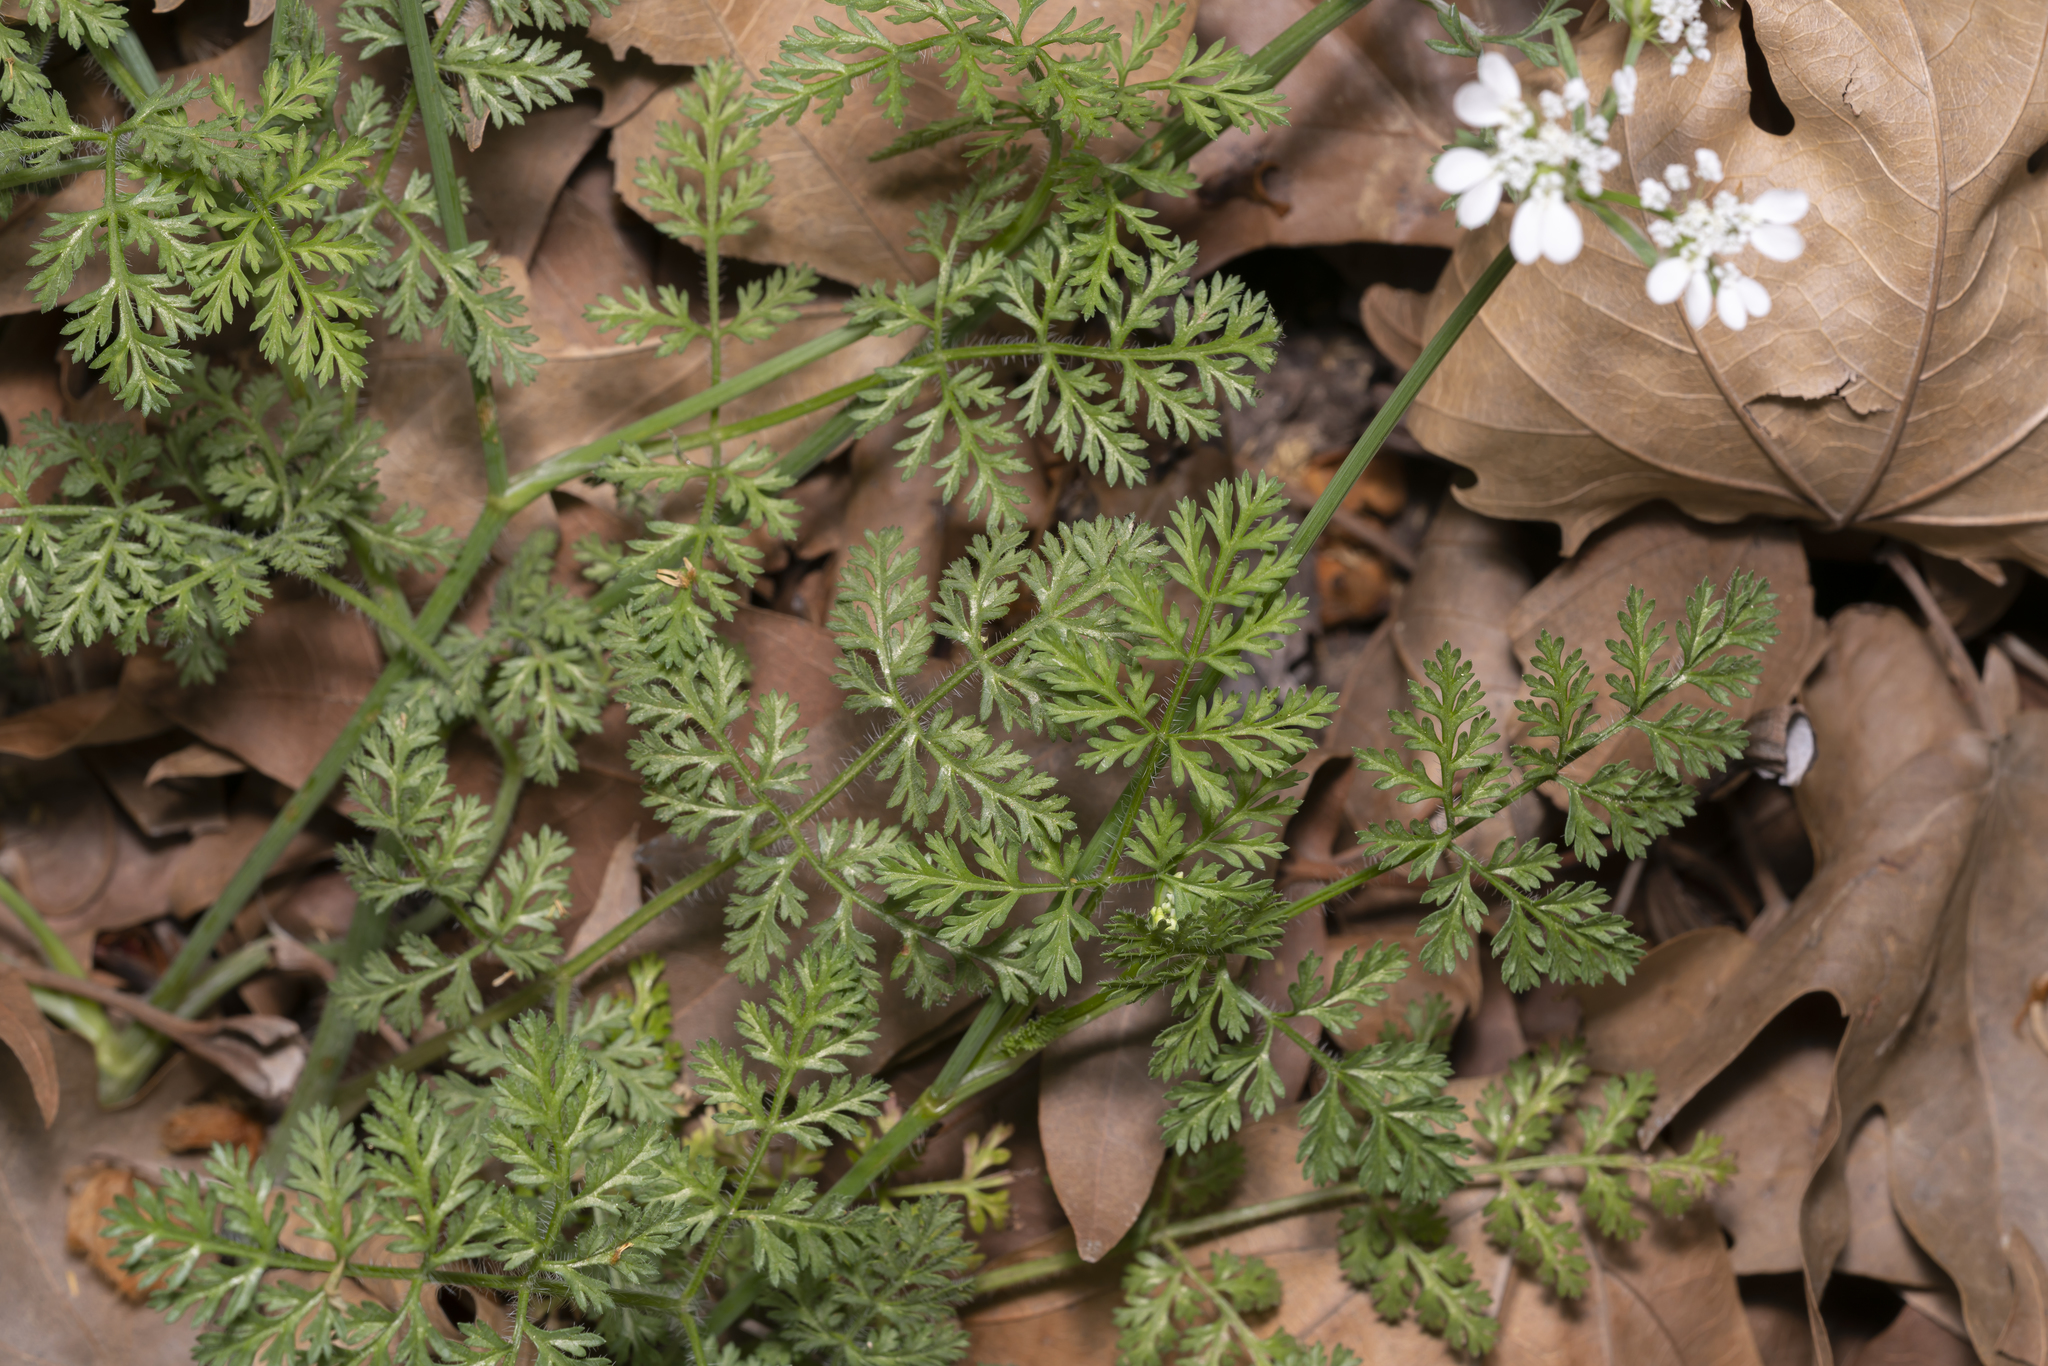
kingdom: Plantae
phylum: Tracheophyta
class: Magnoliopsida
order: Apiales
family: Apiaceae
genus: Orlaya
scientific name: Orlaya daucoides
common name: Flat-fruit orlaya
